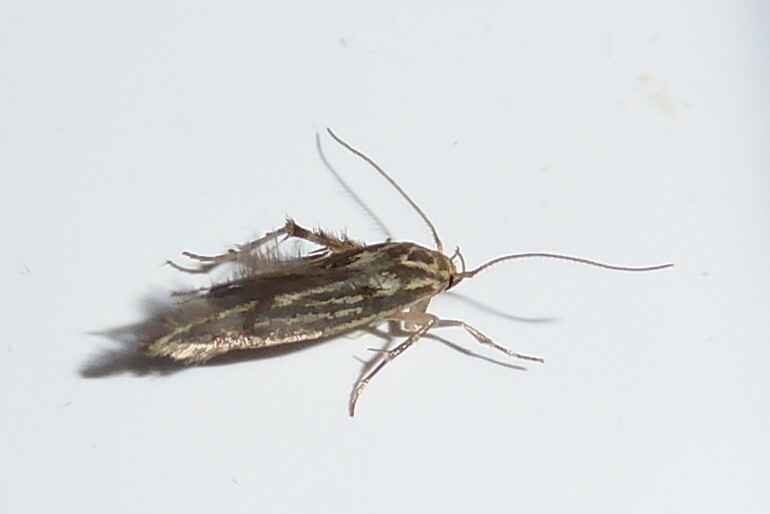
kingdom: Animalia
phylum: Arthropoda
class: Insecta
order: Lepidoptera
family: Stathmopodidae
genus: Stathmopoda
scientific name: Stathmopoda plumbiflua
